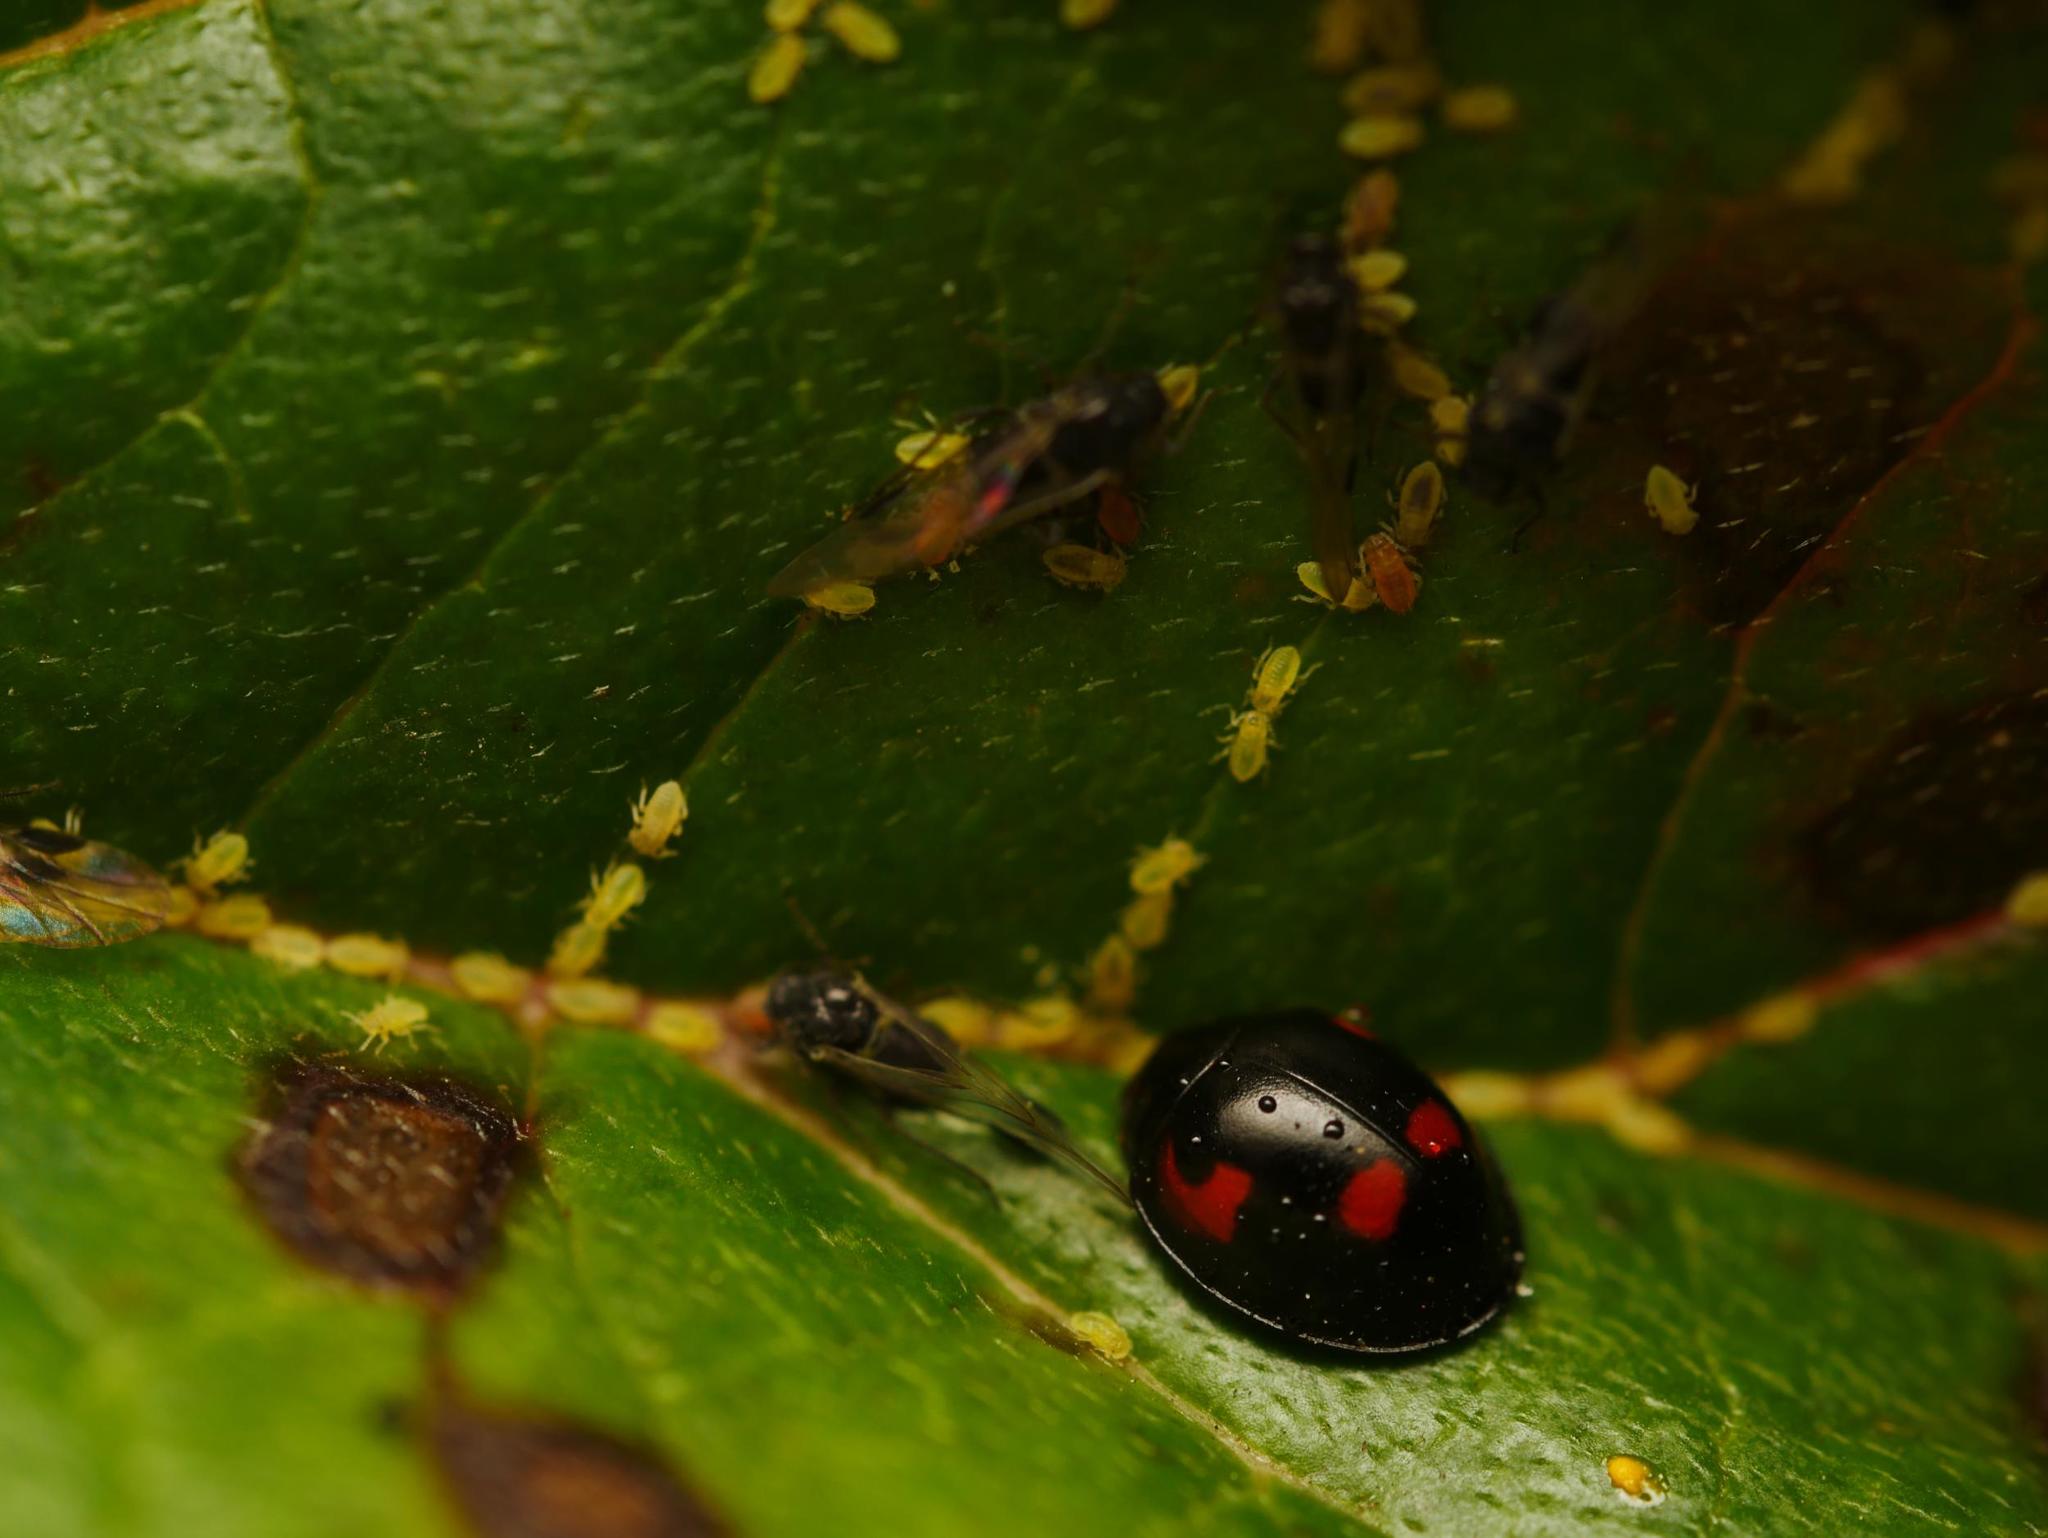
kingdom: Animalia
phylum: Arthropoda
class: Insecta
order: Coleoptera
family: Coccinellidae
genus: Brumus
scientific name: Brumus quadripustulatus
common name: Ladybird beetle
